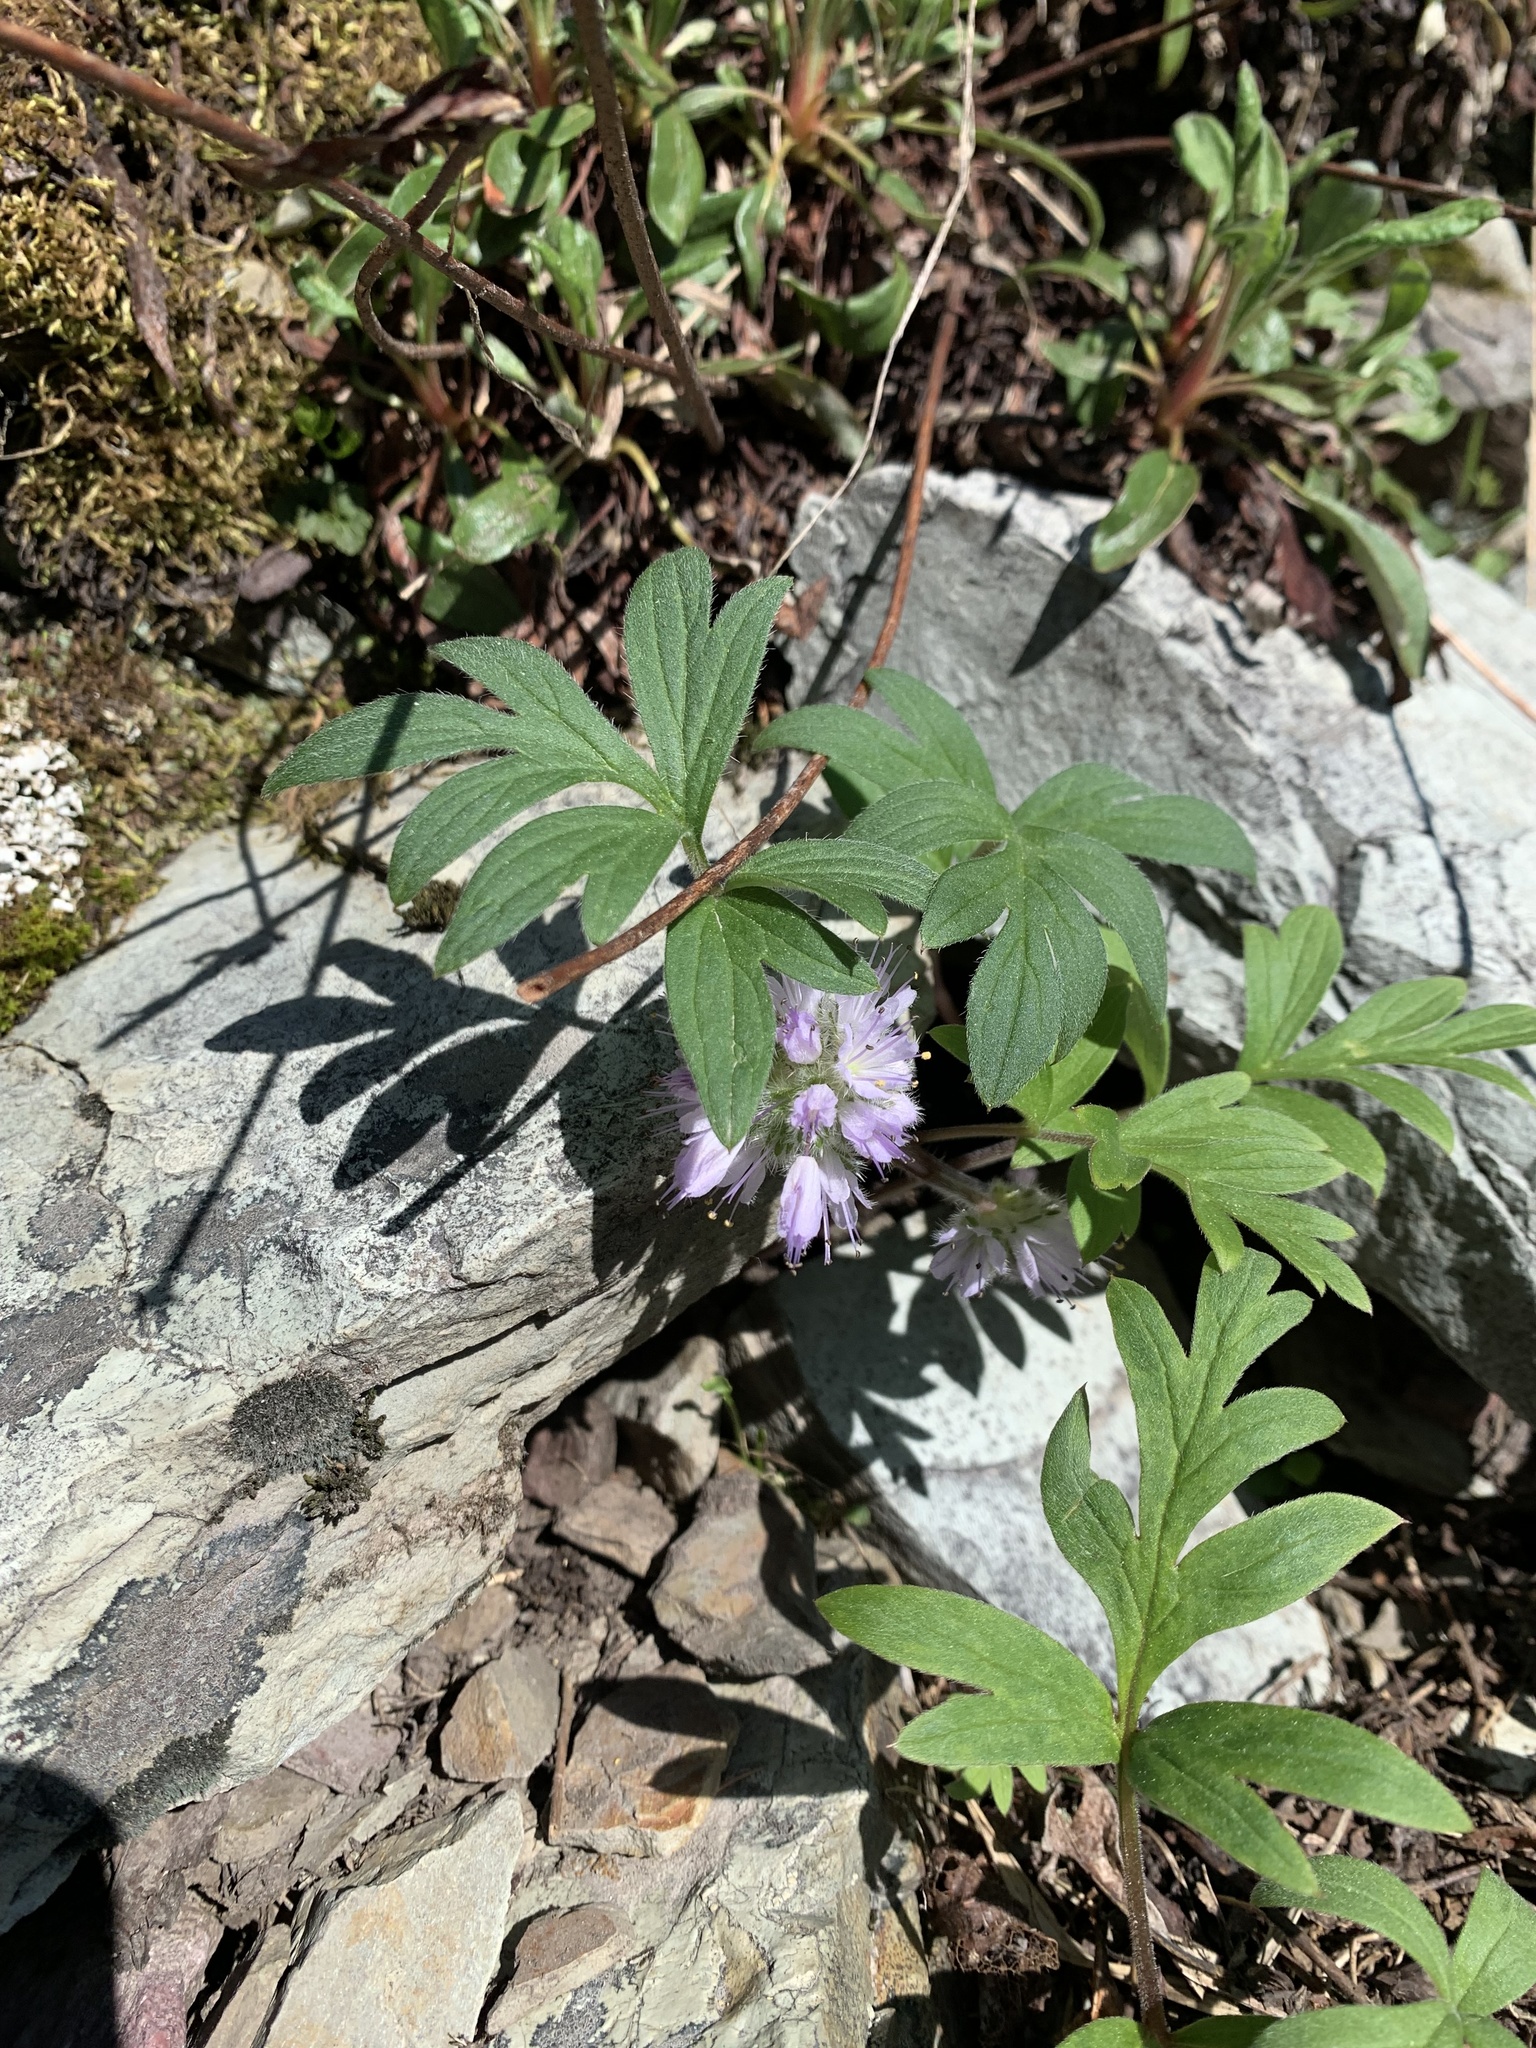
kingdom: Plantae
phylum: Tracheophyta
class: Magnoliopsida
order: Boraginales
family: Hydrophyllaceae
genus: Hydrophyllum
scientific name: Hydrophyllum capitatum
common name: Woollen-breeches
